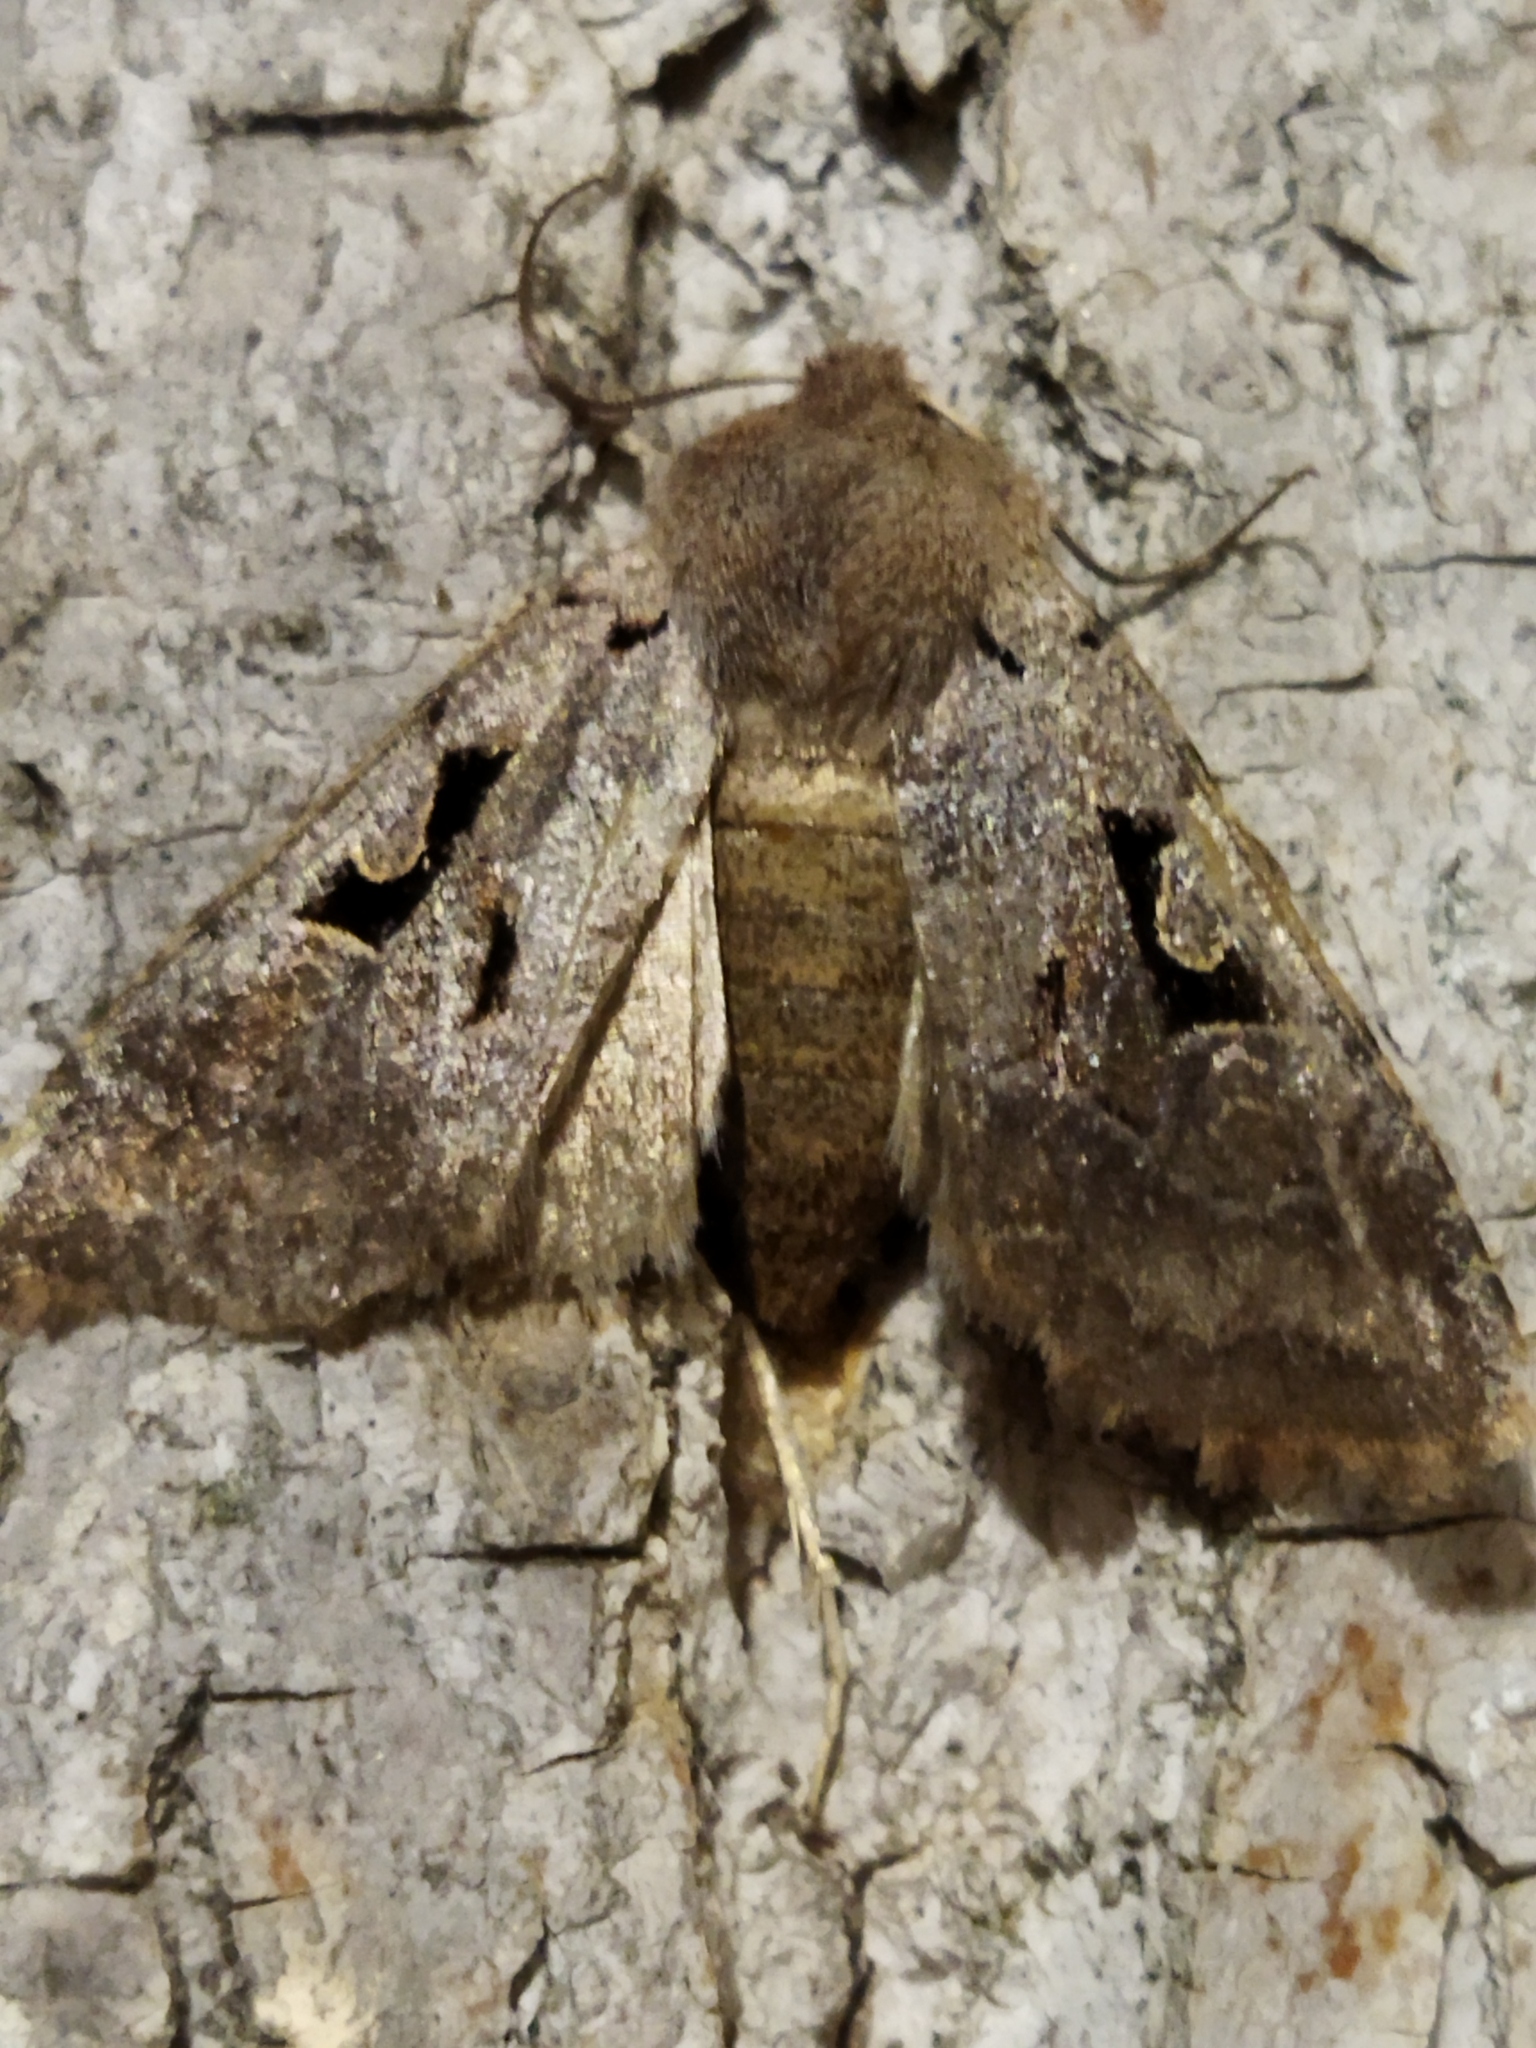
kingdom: Animalia
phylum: Arthropoda
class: Insecta
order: Lepidoptera
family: Noctuidae
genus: Orthosia
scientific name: Orthosia gothica
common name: Hebrew character
